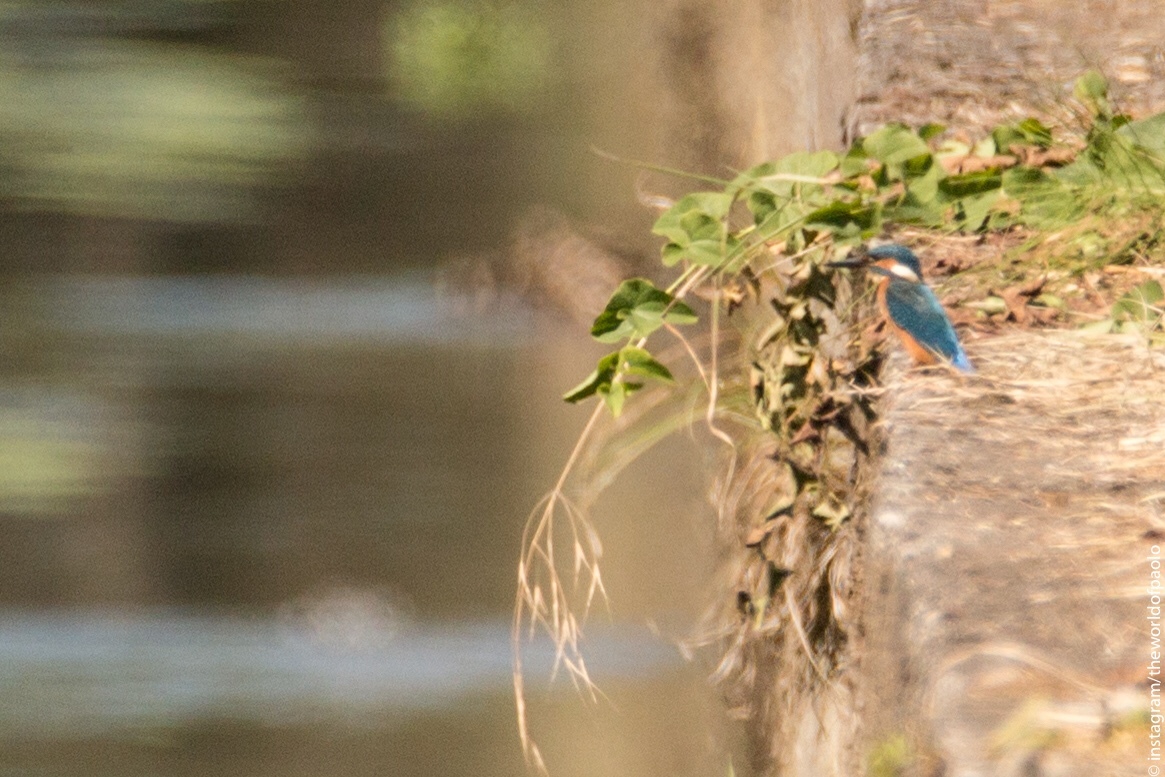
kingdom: Animalia
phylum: Chordata
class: Aves
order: Coraciiformes
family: Alcedinidae
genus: Alcedo
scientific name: Alcedo atthis
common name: Common kingfisher
